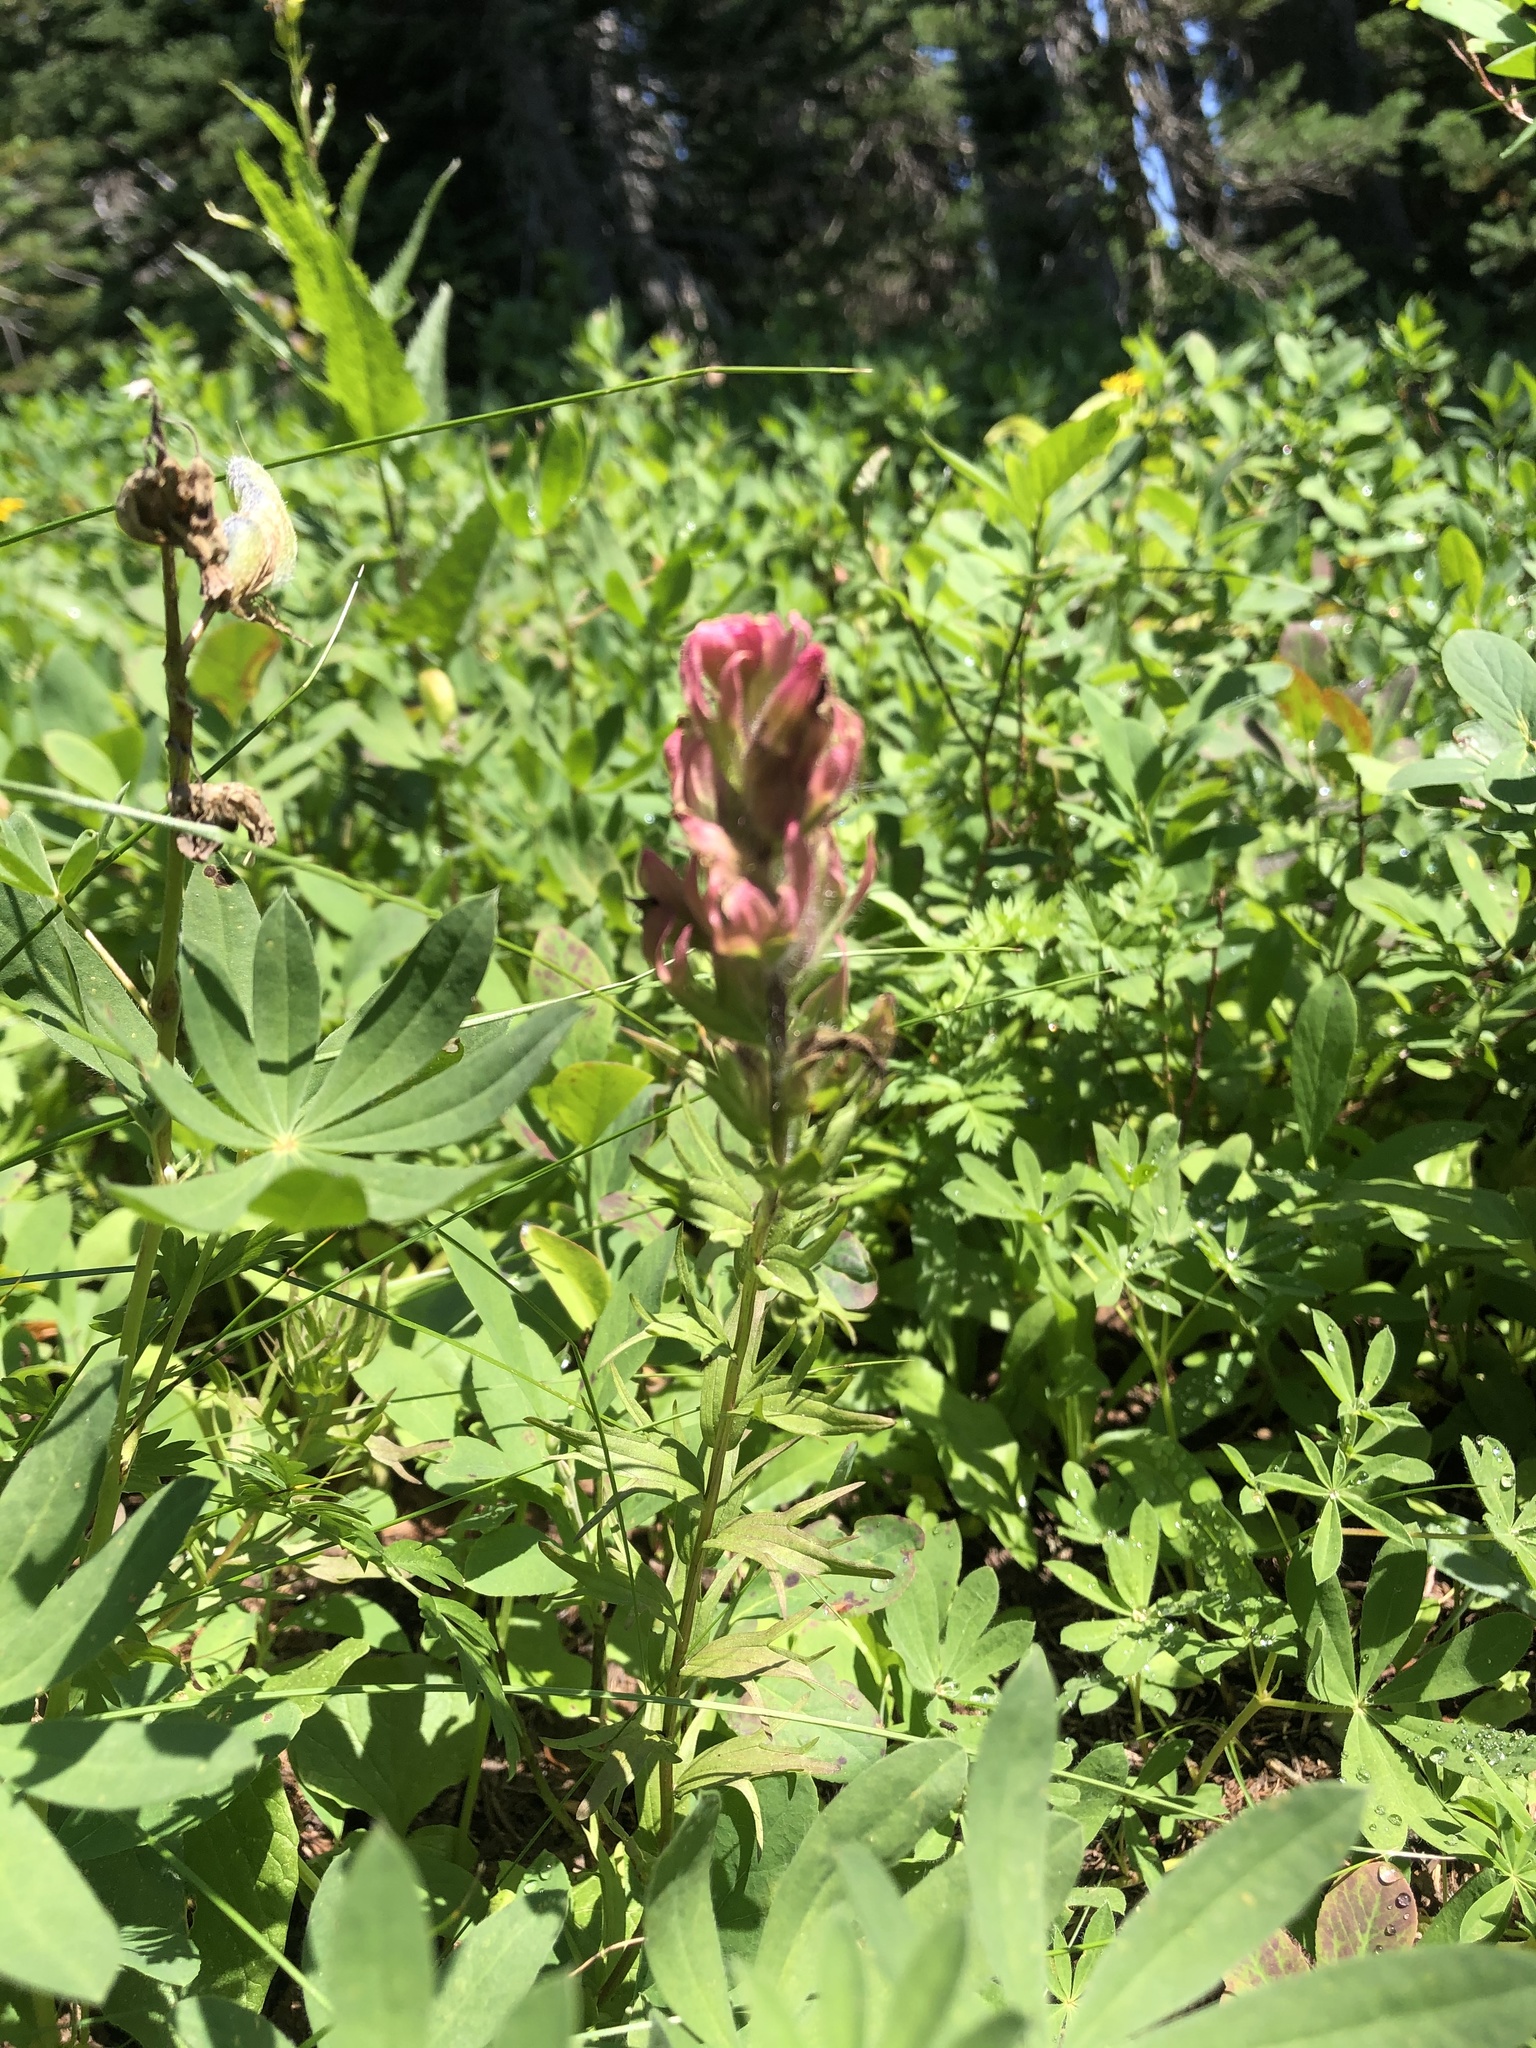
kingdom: Plantae
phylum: Tracheophyta
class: Magnoliopsida
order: Lamiales
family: Orobanchaceae
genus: Castilleja
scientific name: Castilleja parviflora
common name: Mountain paintbrush
